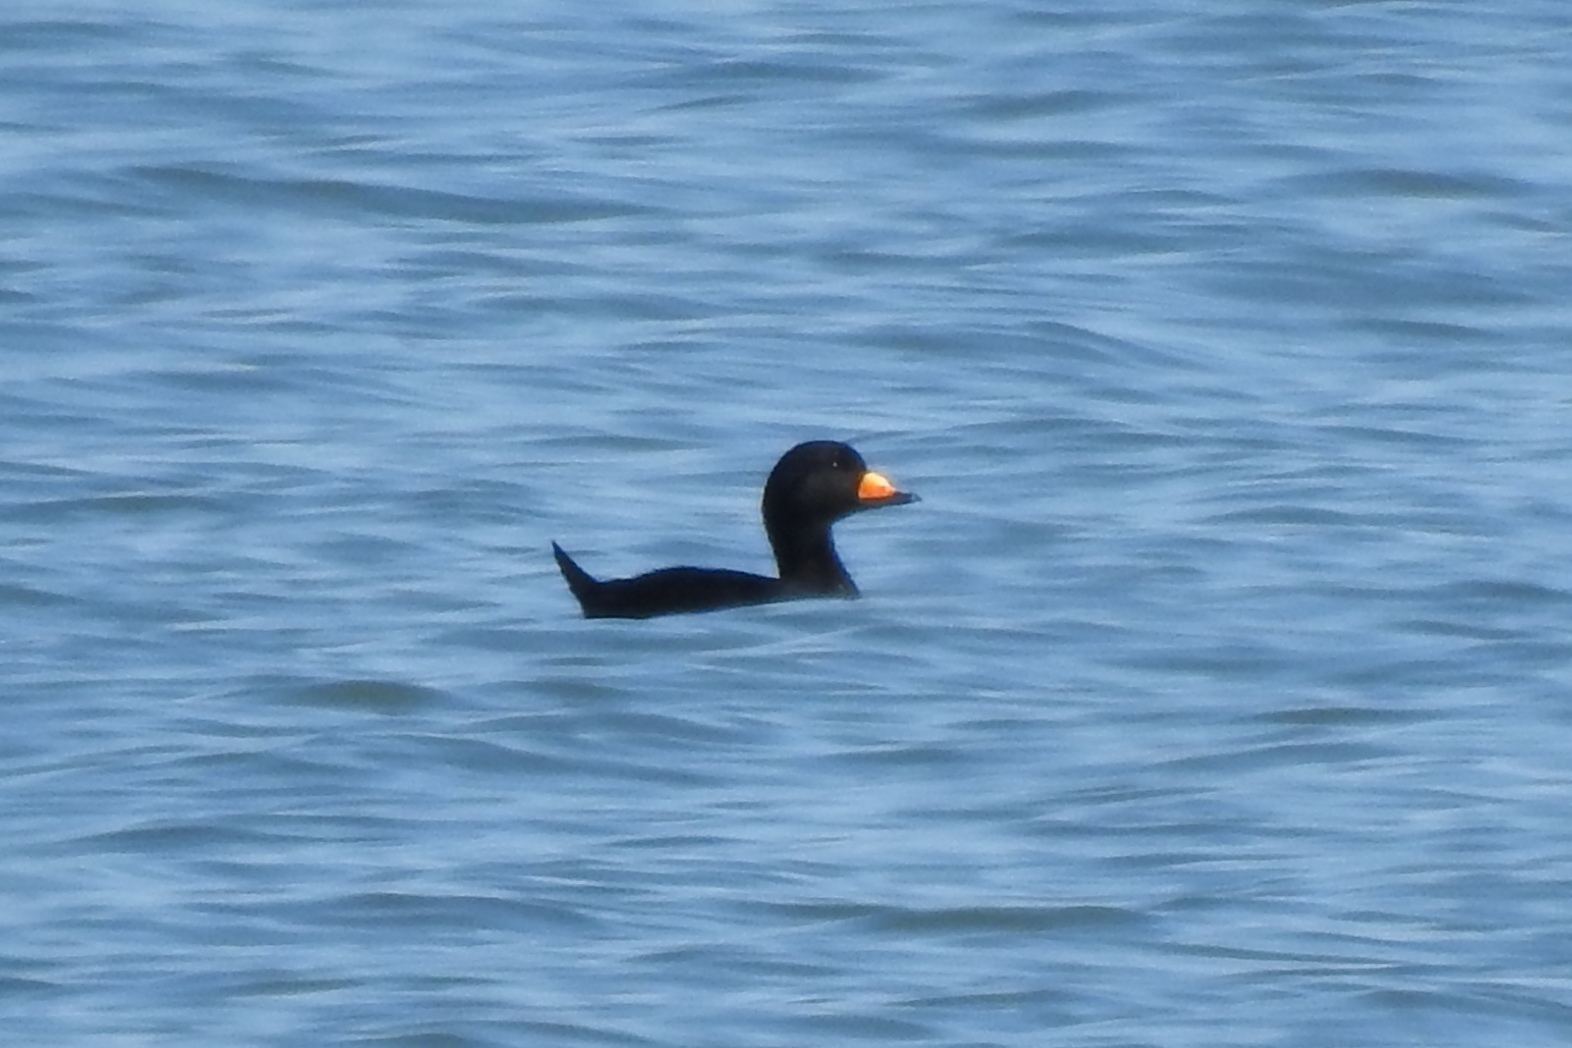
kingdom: Animalia
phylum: Chordata
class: Aves
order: Anseriformes
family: Anatidae
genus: Melanitta
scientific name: Melanitta americana
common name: Black scoter
